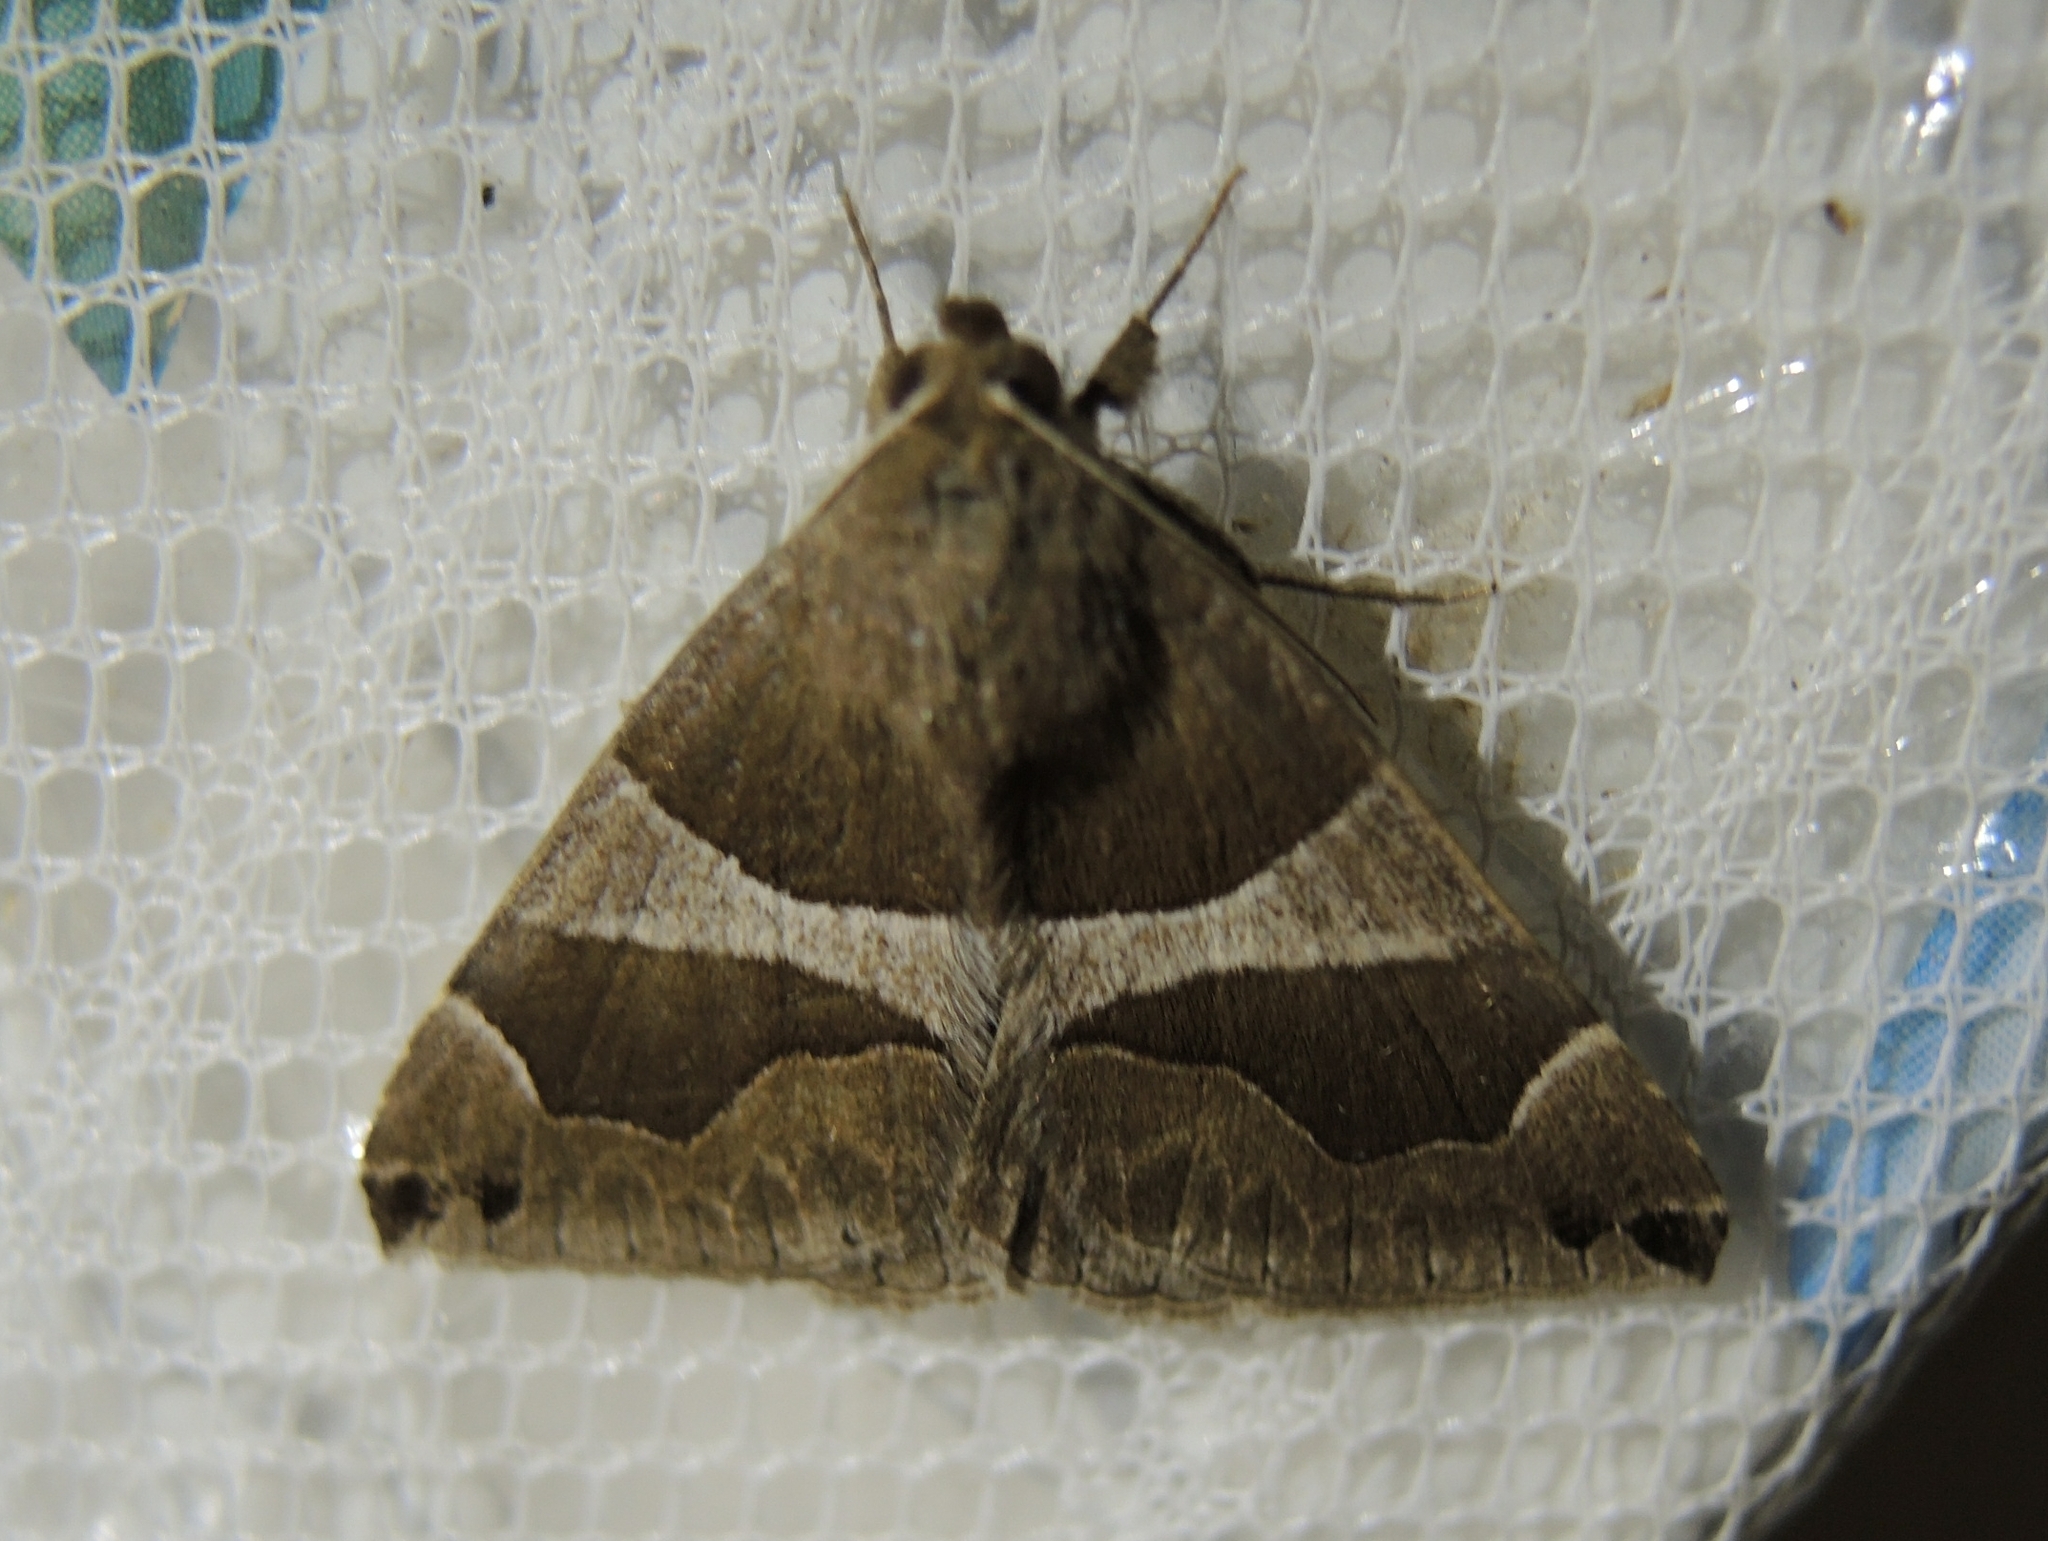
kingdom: Animalia
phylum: Arthropoda
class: Insecta
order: Lepidoptera
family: Erebidae
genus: Dysgonia
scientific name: Dysgonia algira
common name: Passenger
